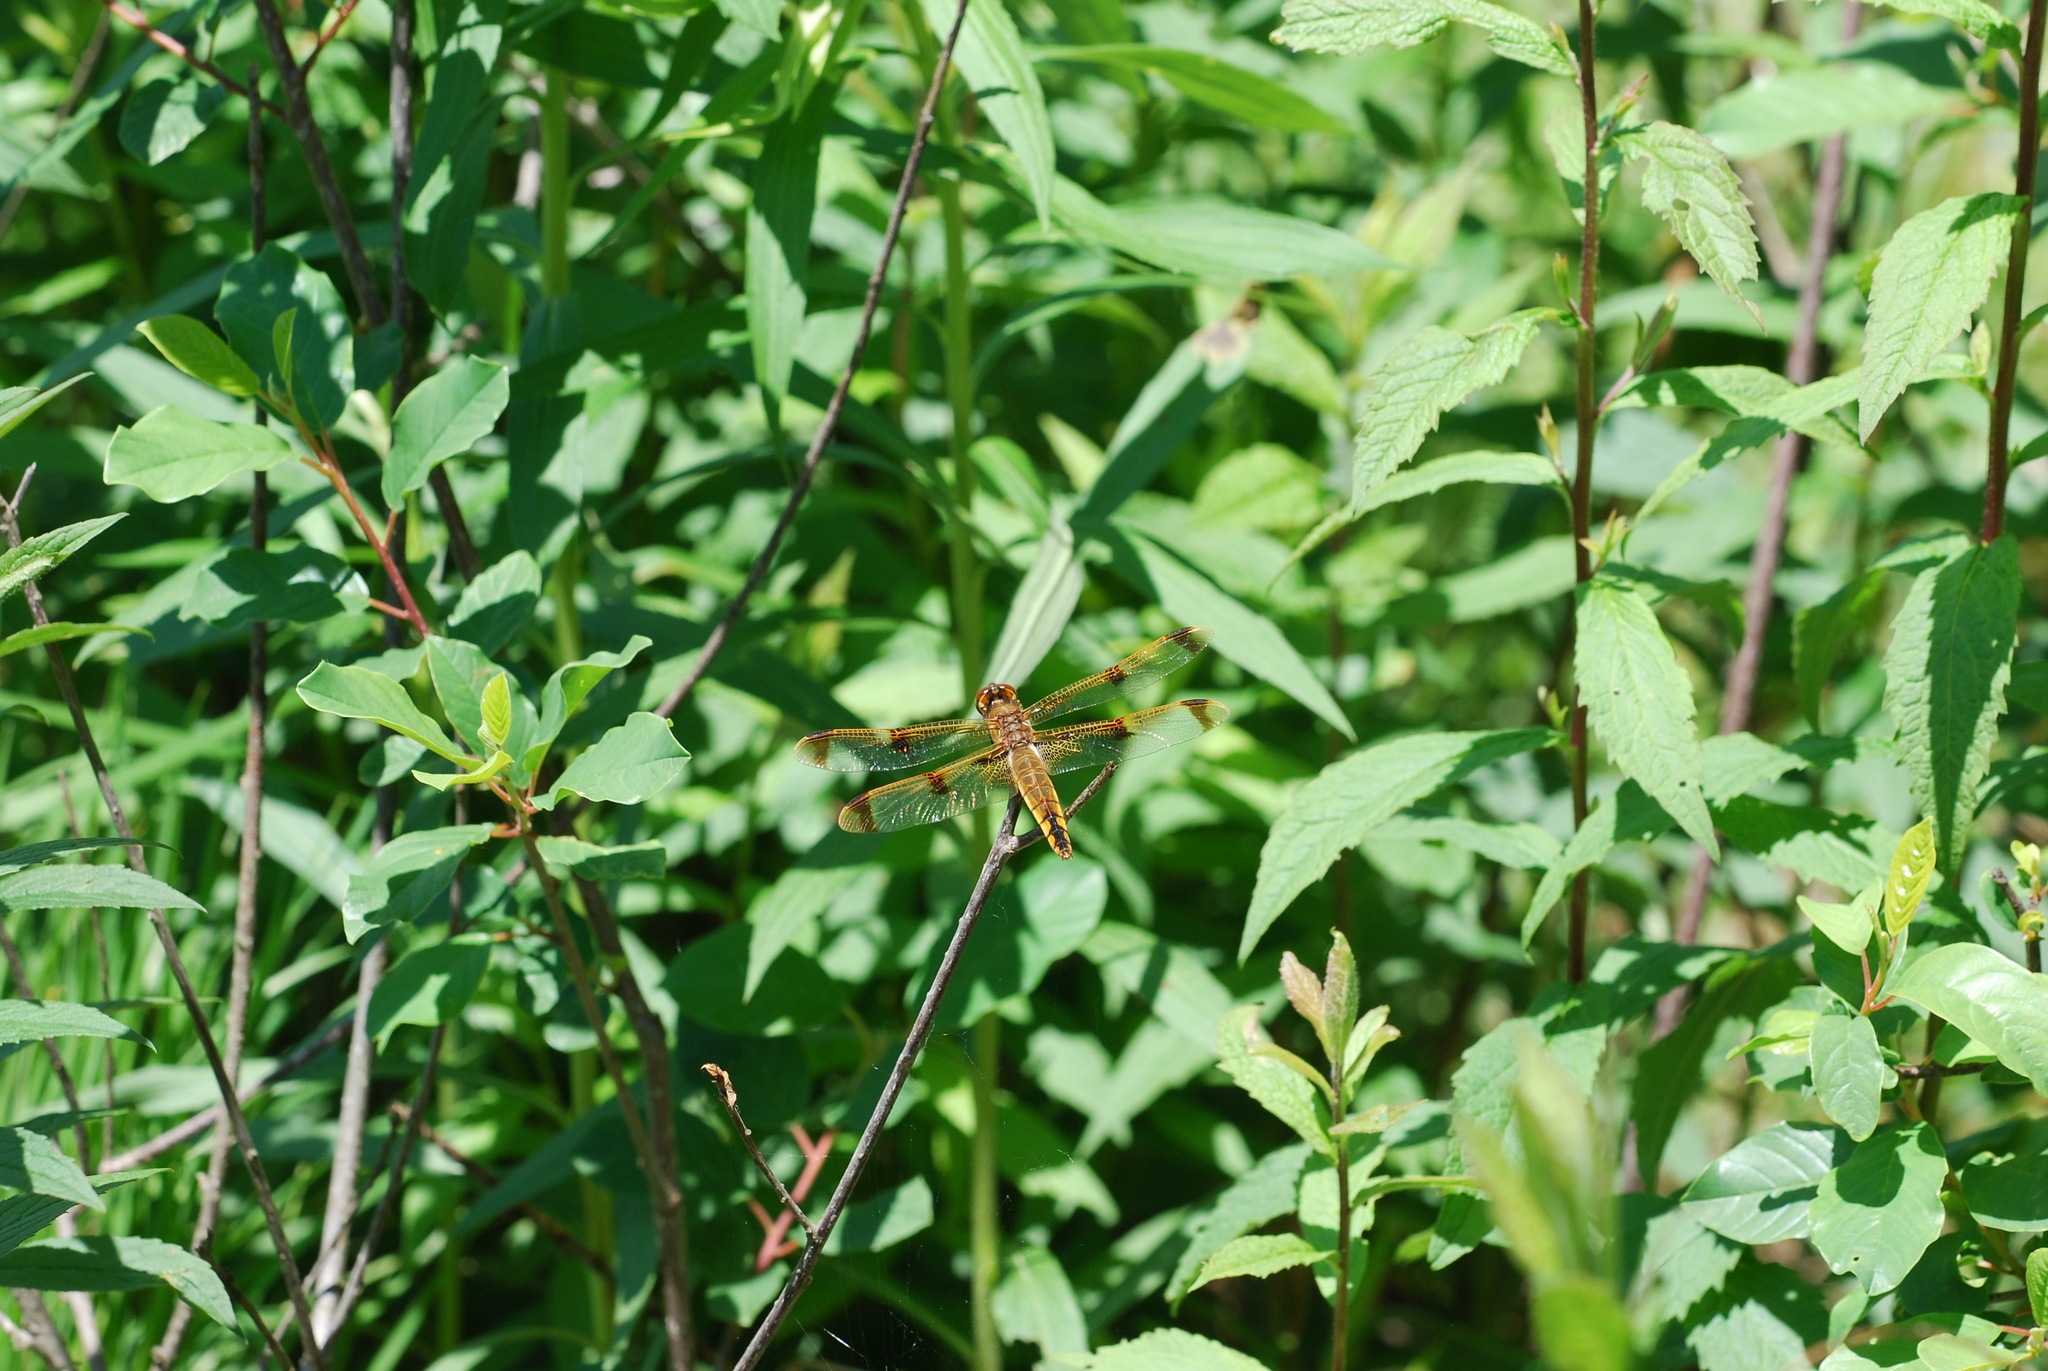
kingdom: Animalia
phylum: Arthropoda
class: Insecta
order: Odonata
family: Libellulidae
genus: Libellula
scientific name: Libellula semifasciata
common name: Painted skimmer
